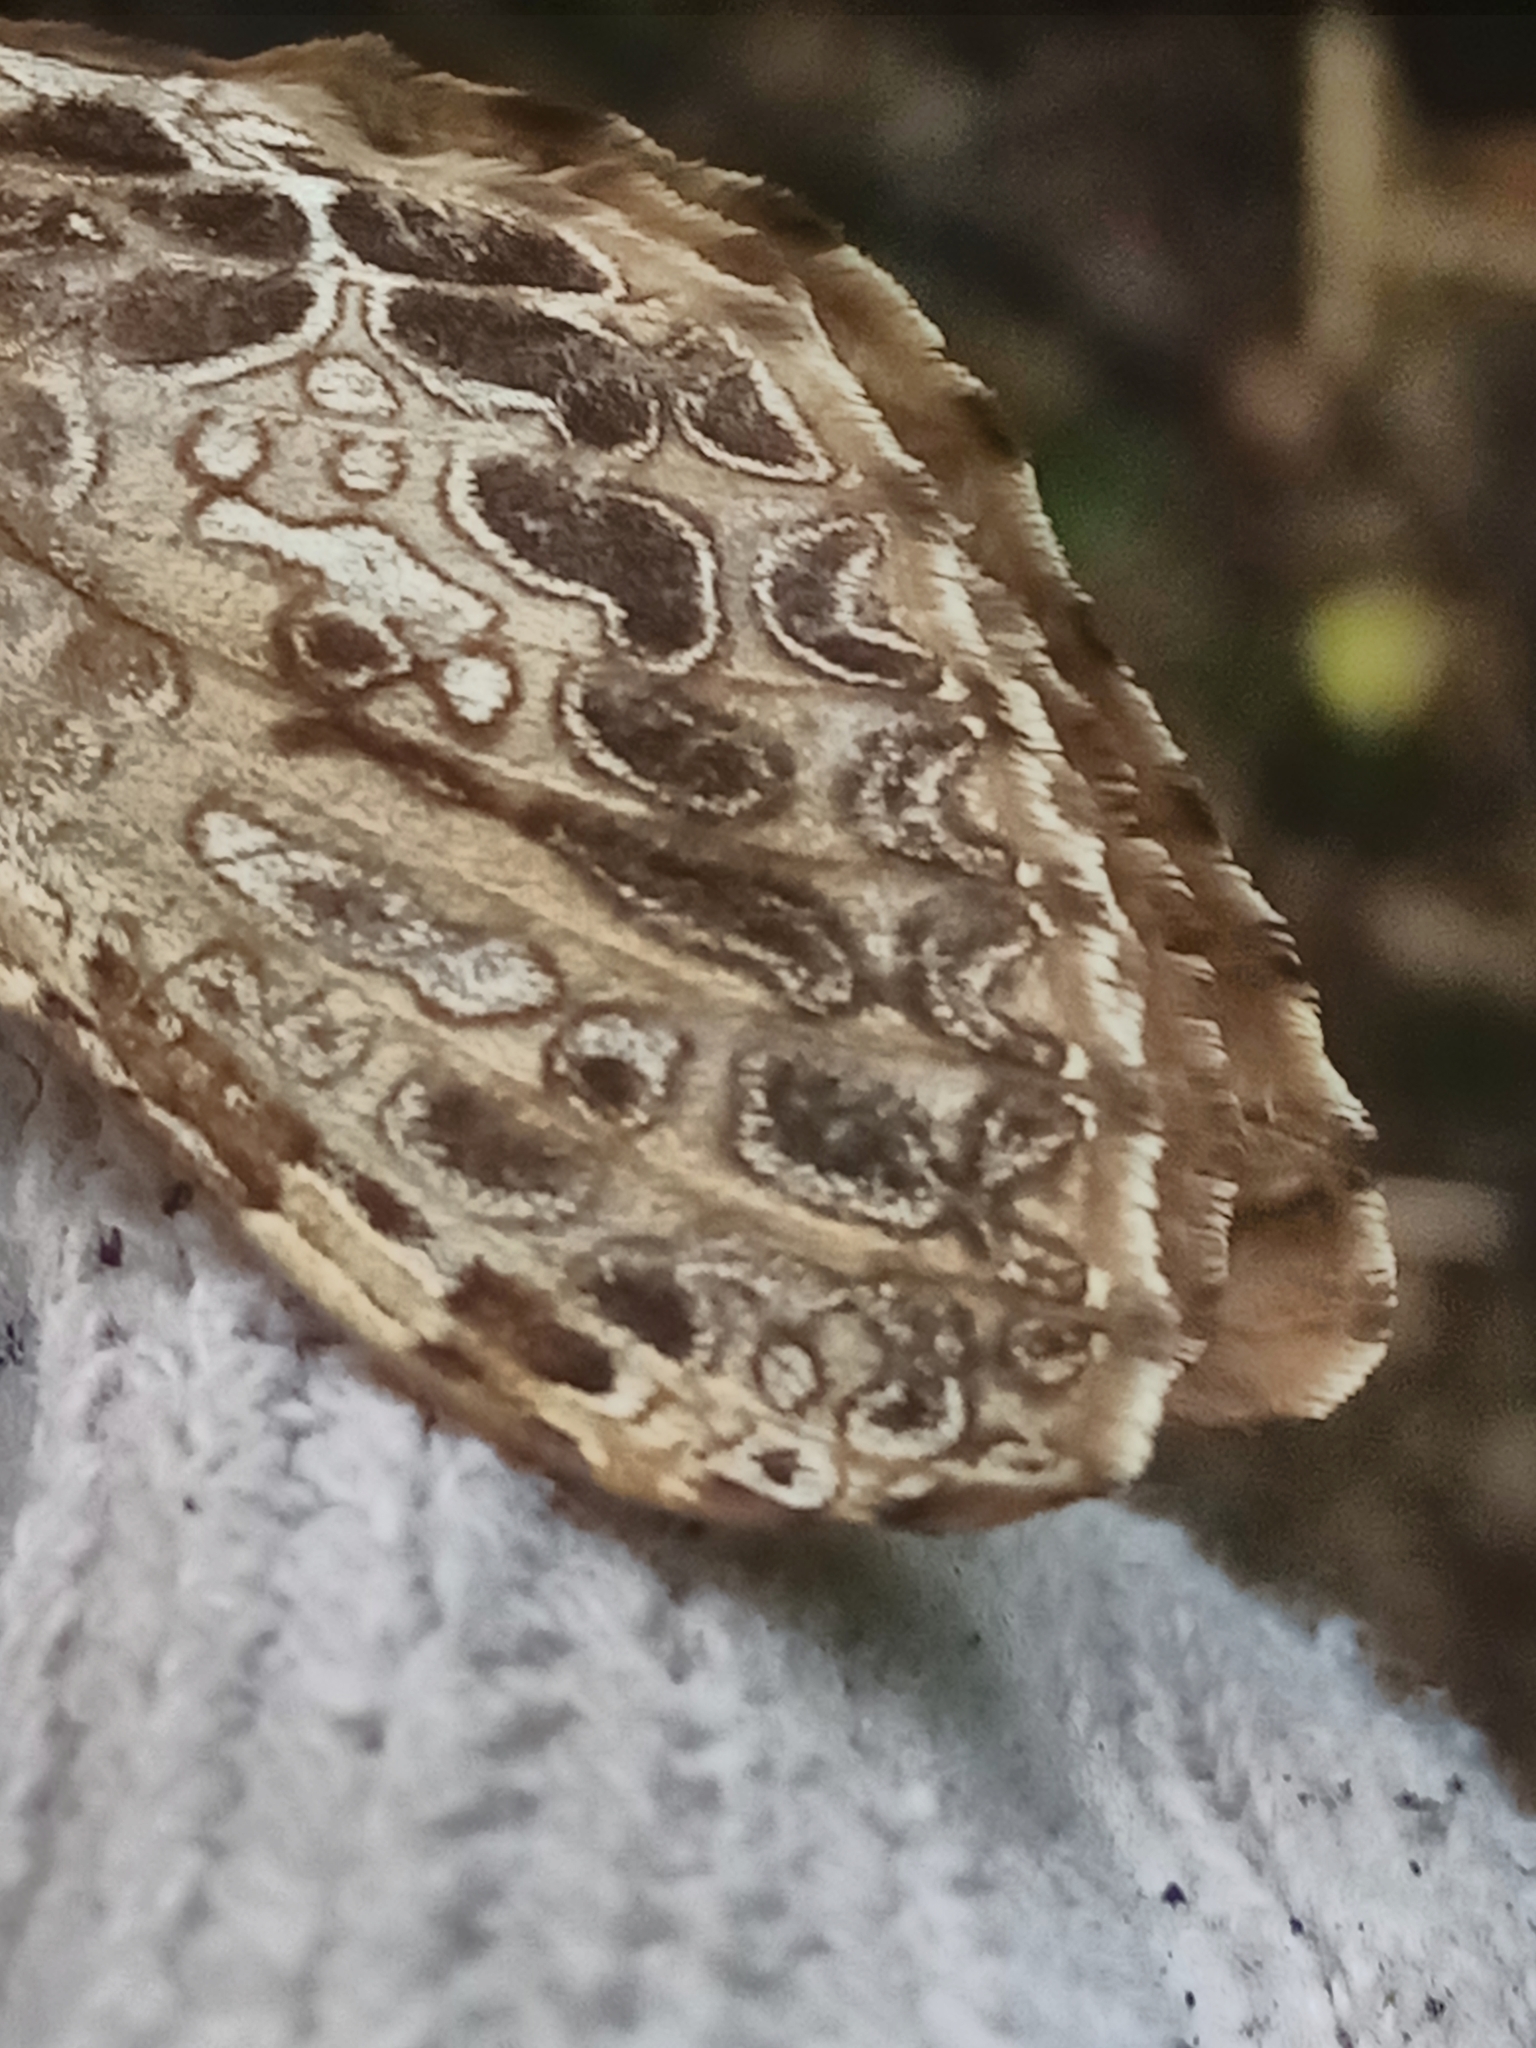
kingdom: Animalia
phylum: Arthropoda
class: Insecta
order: Lepidoptera
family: Hepialidae
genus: Aoraia
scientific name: Aoraia enysii
